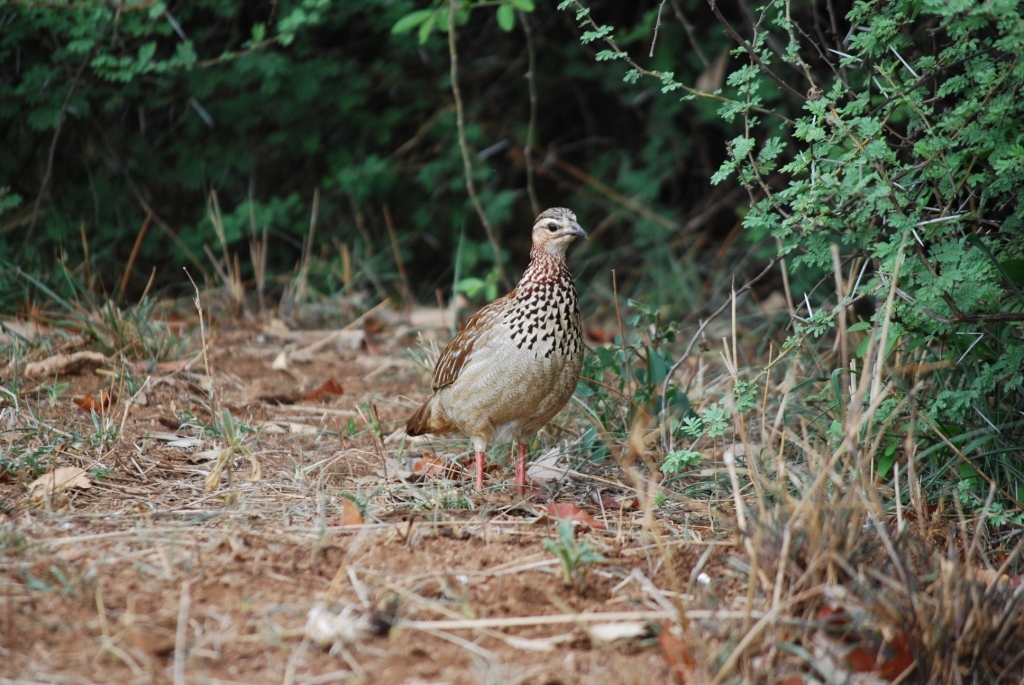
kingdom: Animalia
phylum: Chordata
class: Aves
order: Galliformes
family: Phasianidae
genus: Ortygornis
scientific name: Ortygornis sephaena
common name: Crested francolin
